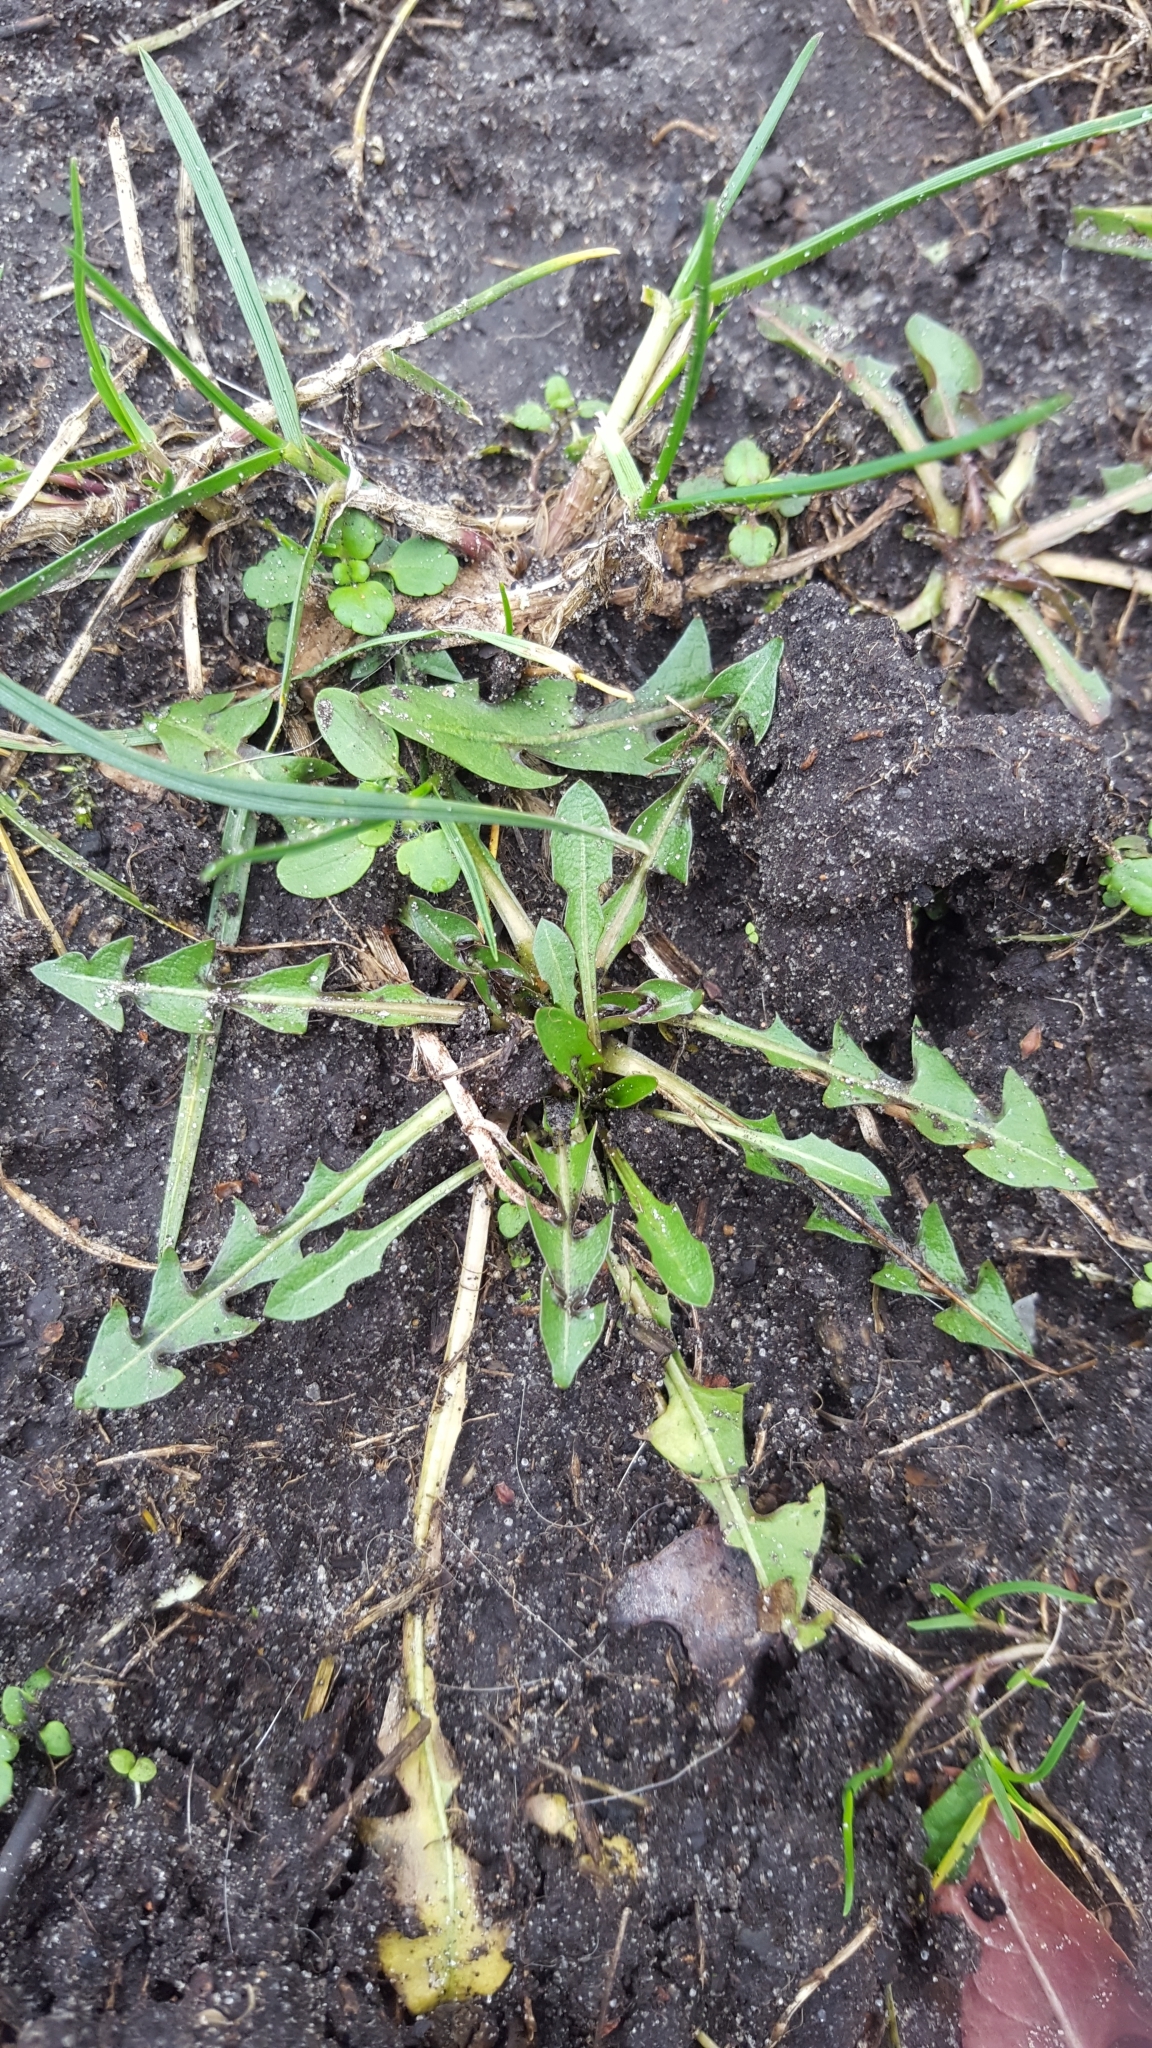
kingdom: Plantae
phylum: Tracheophyta
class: Magnoliopsida
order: Asterales
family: Asteraceae
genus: Taraxacum
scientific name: Taraxacum officinale
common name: Common dandelion
